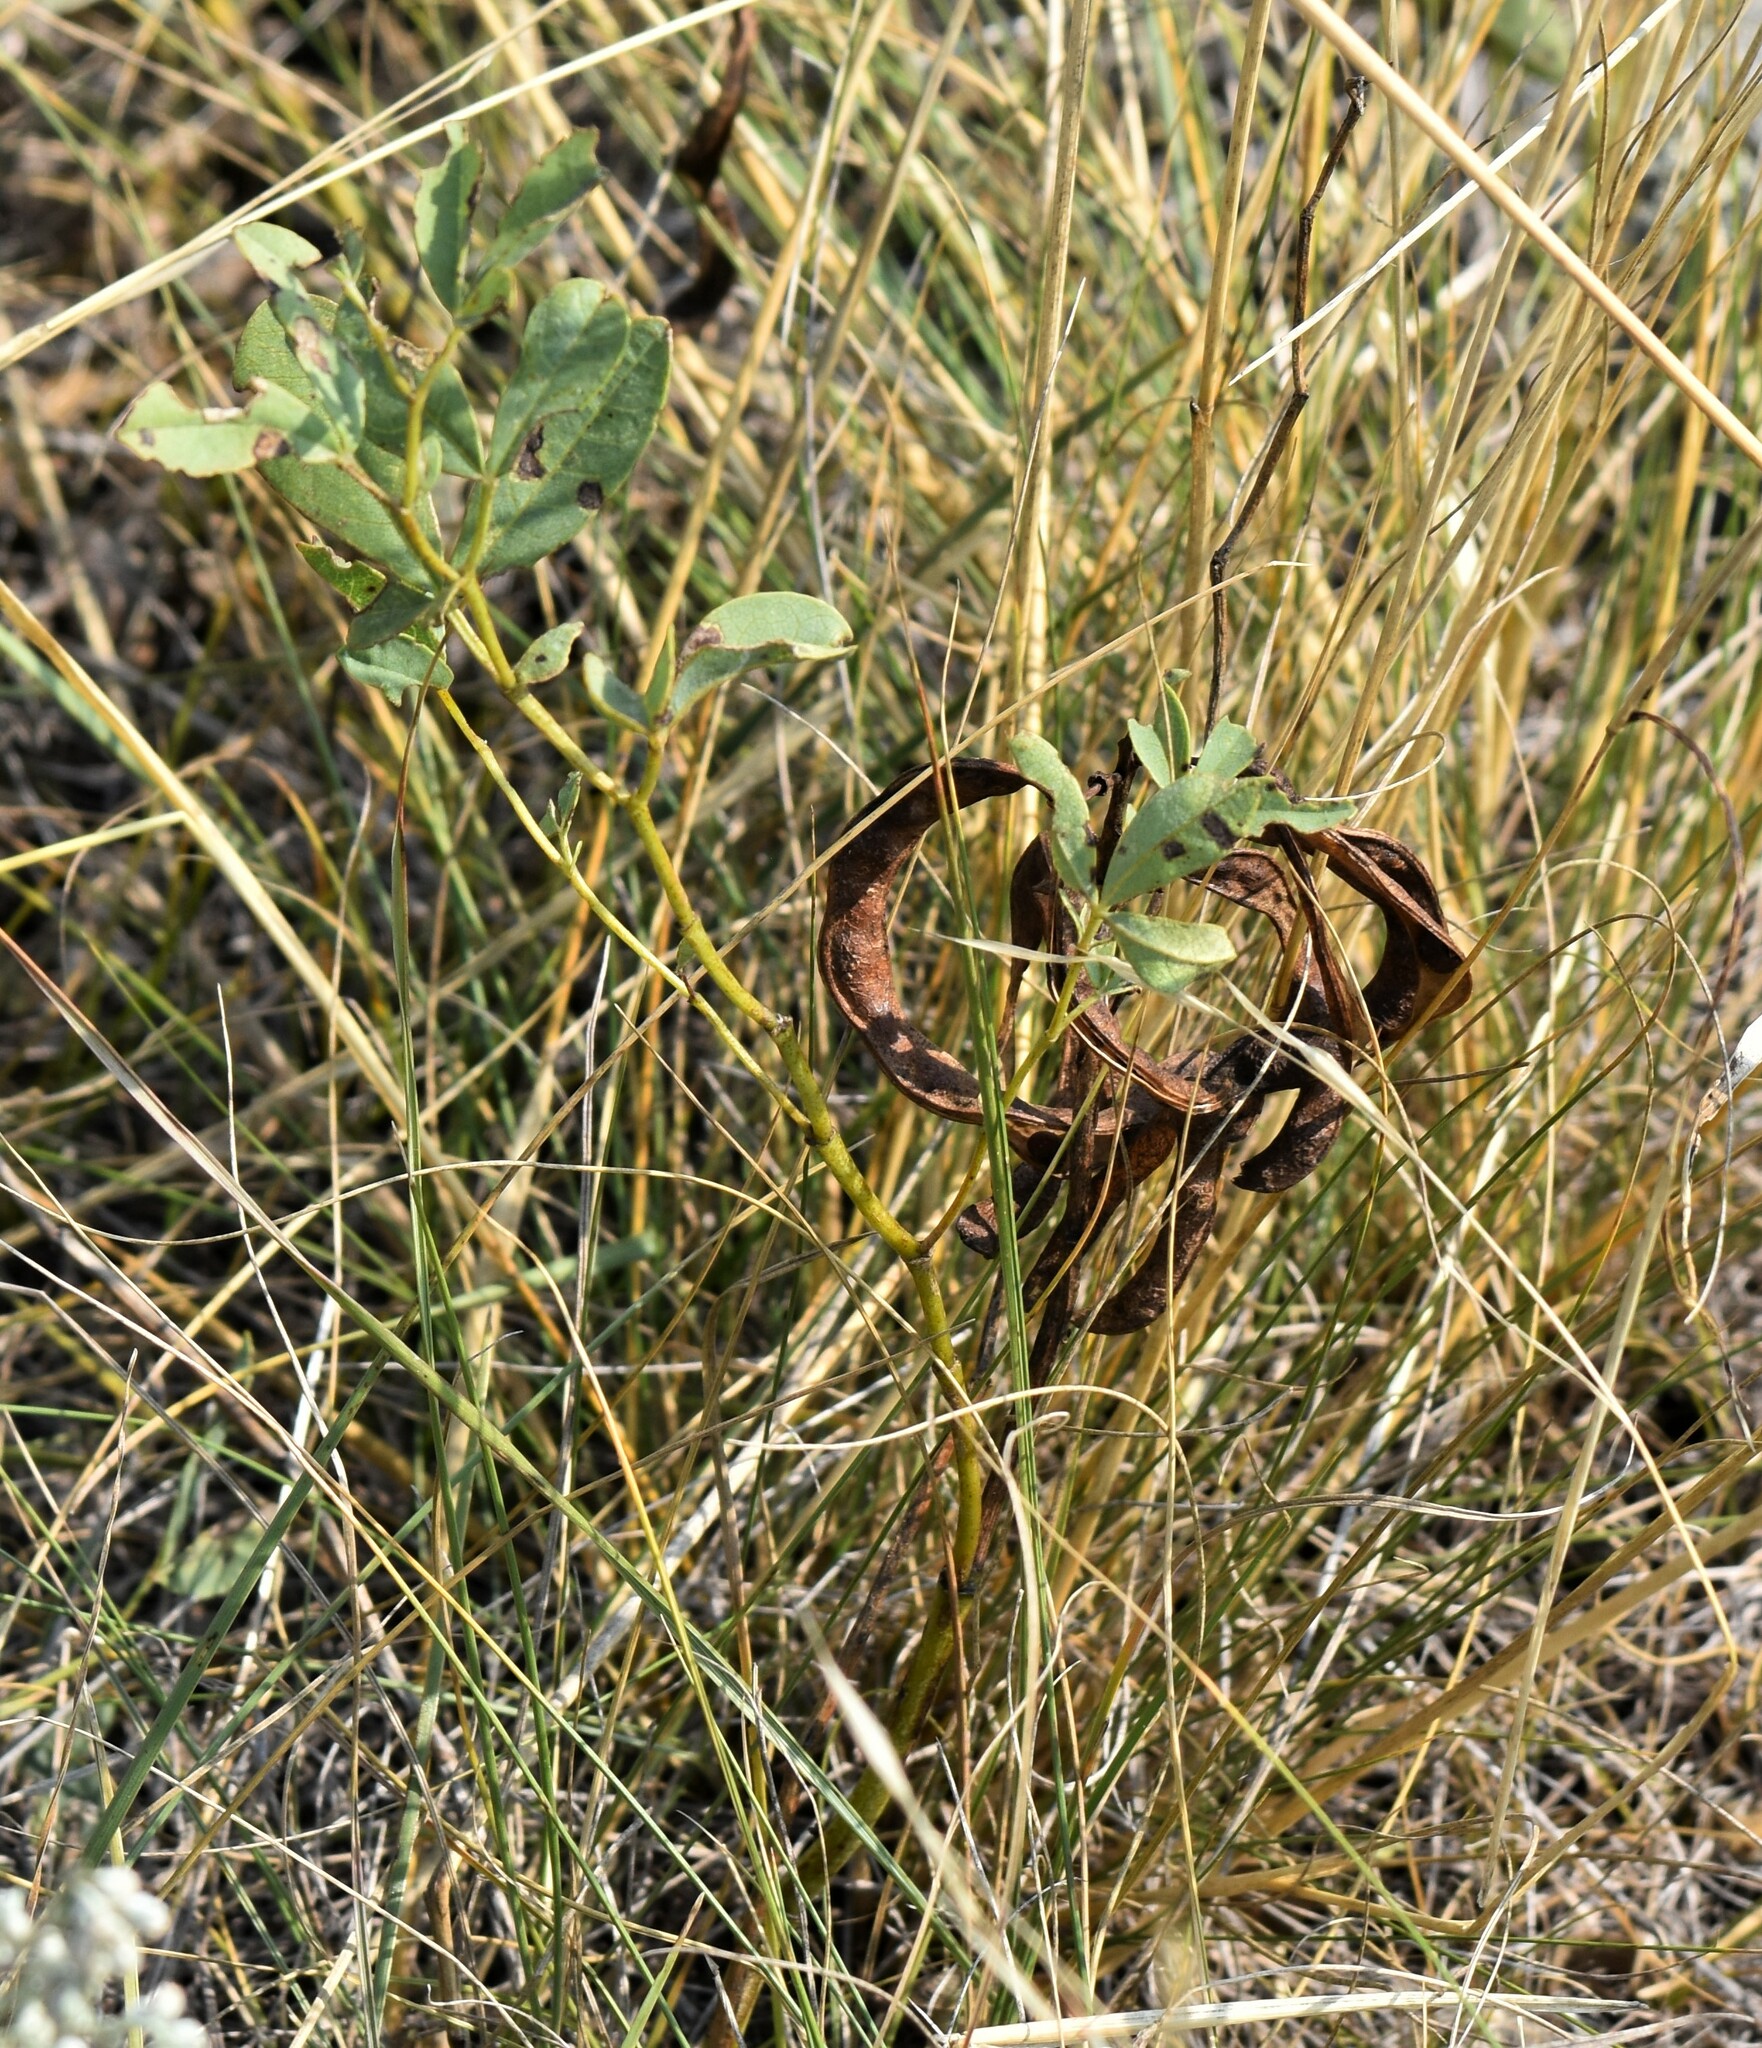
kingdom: Plantae
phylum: Tracheophyta
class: Magnoliopsida
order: Fabales
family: Fabaceae
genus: Thermopsis
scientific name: Thermopsis rhombifolia
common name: Circle-pod-pea
